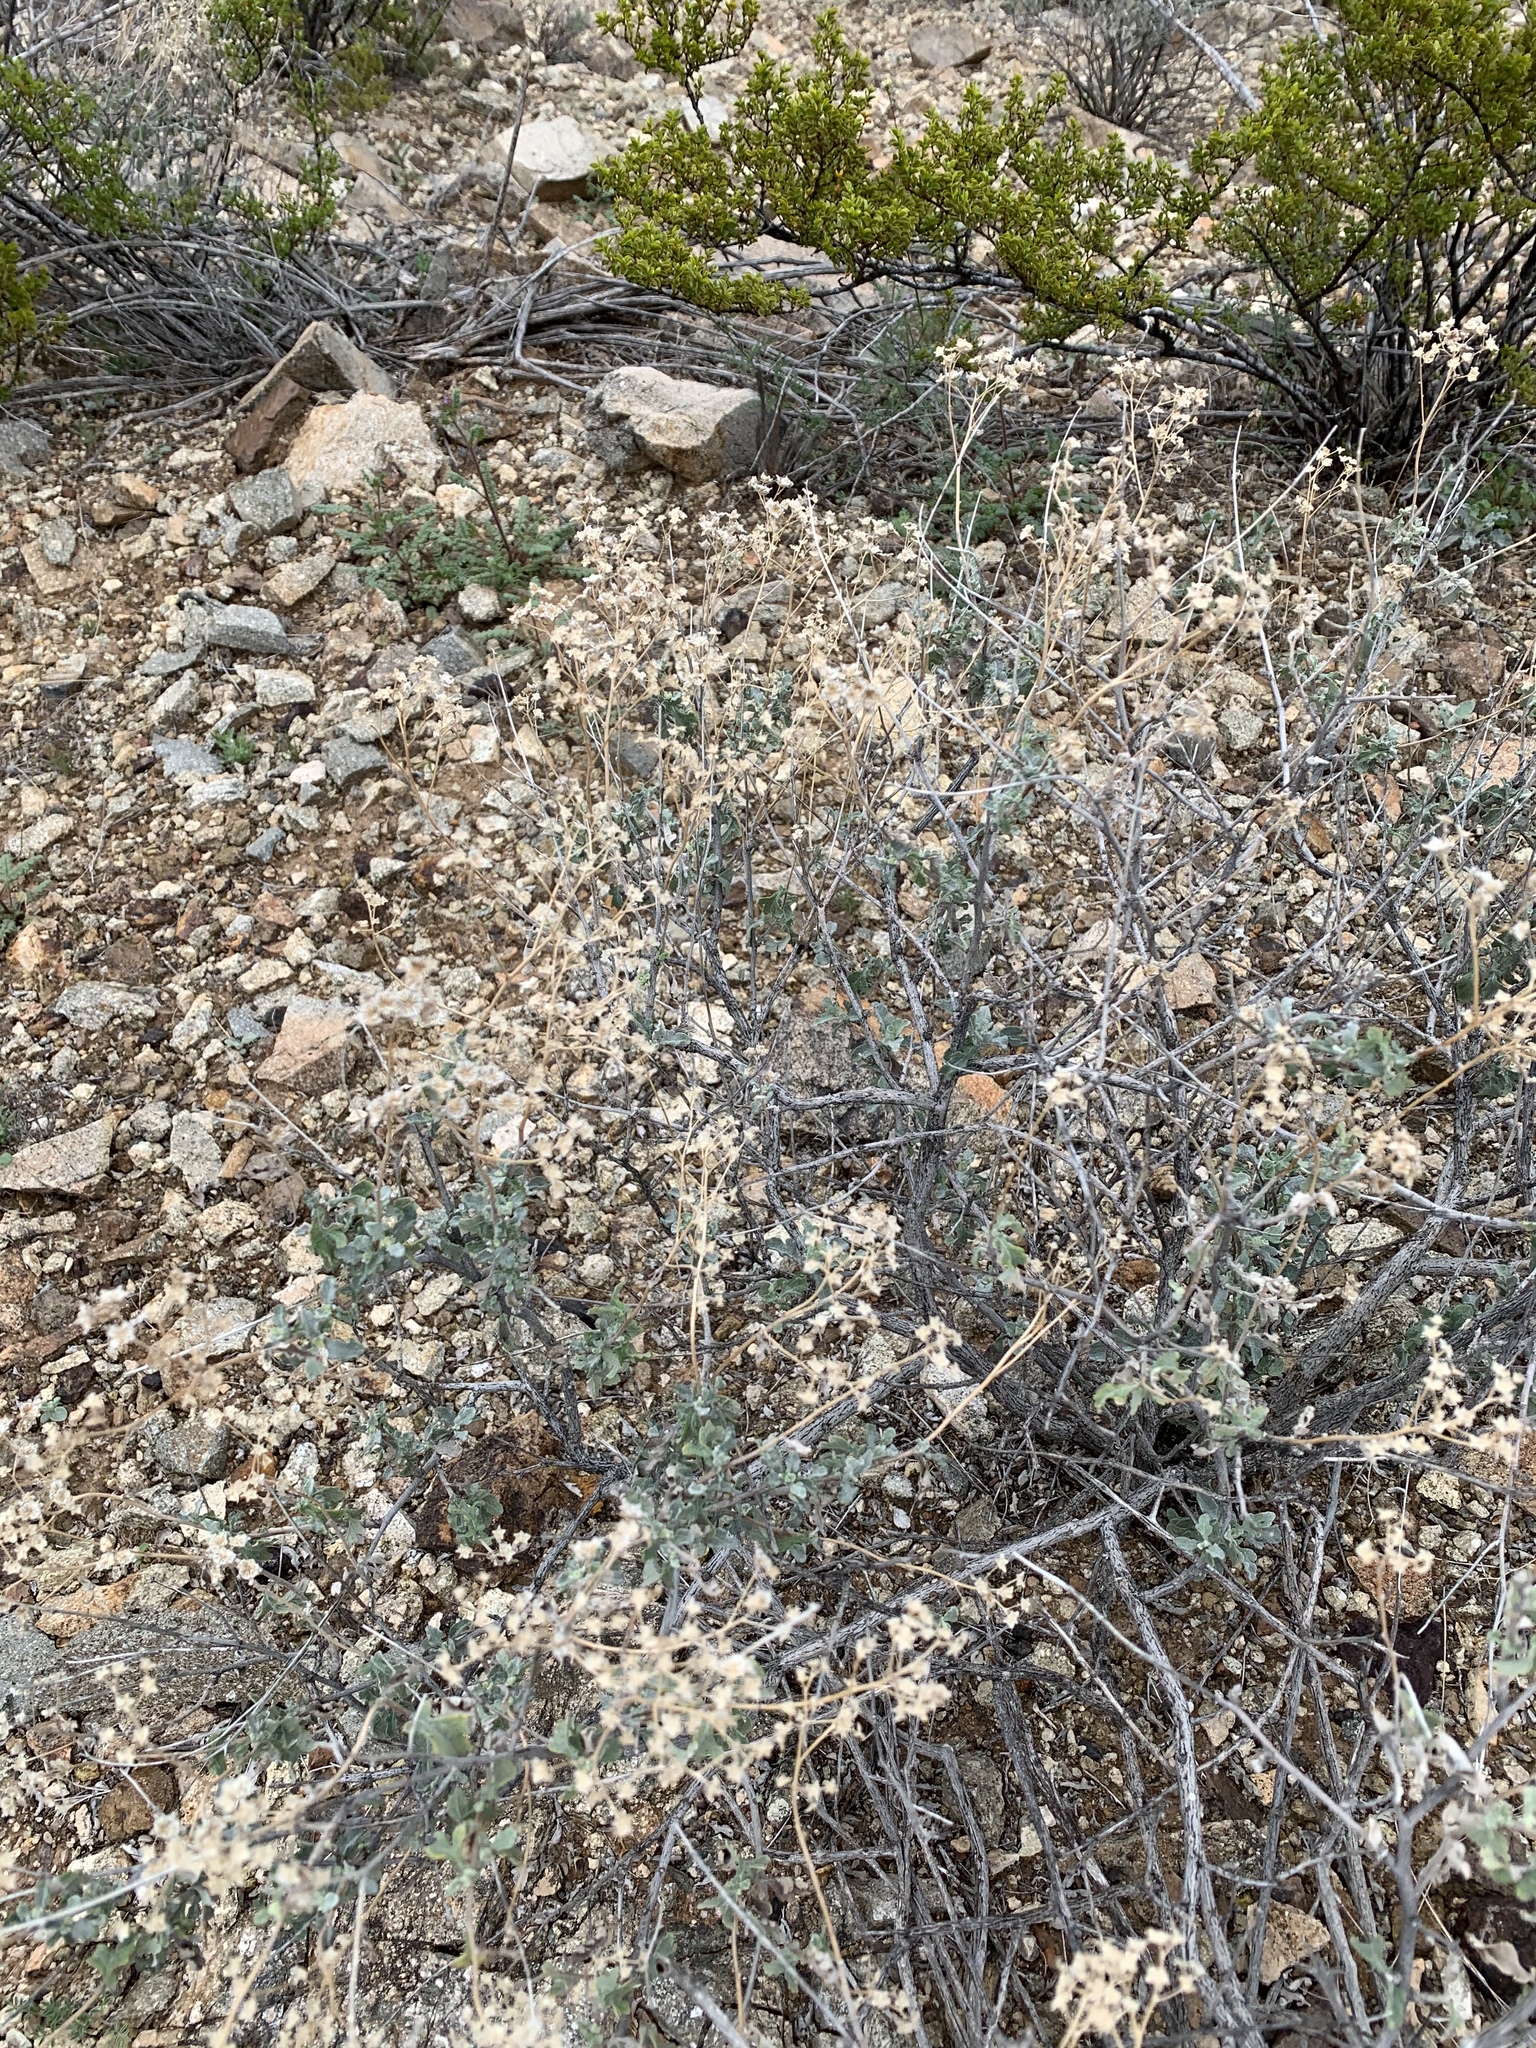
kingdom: Plantae
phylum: Tracheophyta
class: Magnoliopsida
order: Asterales
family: Asteraceae
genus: Parthenium
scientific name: Parthenium incanum
